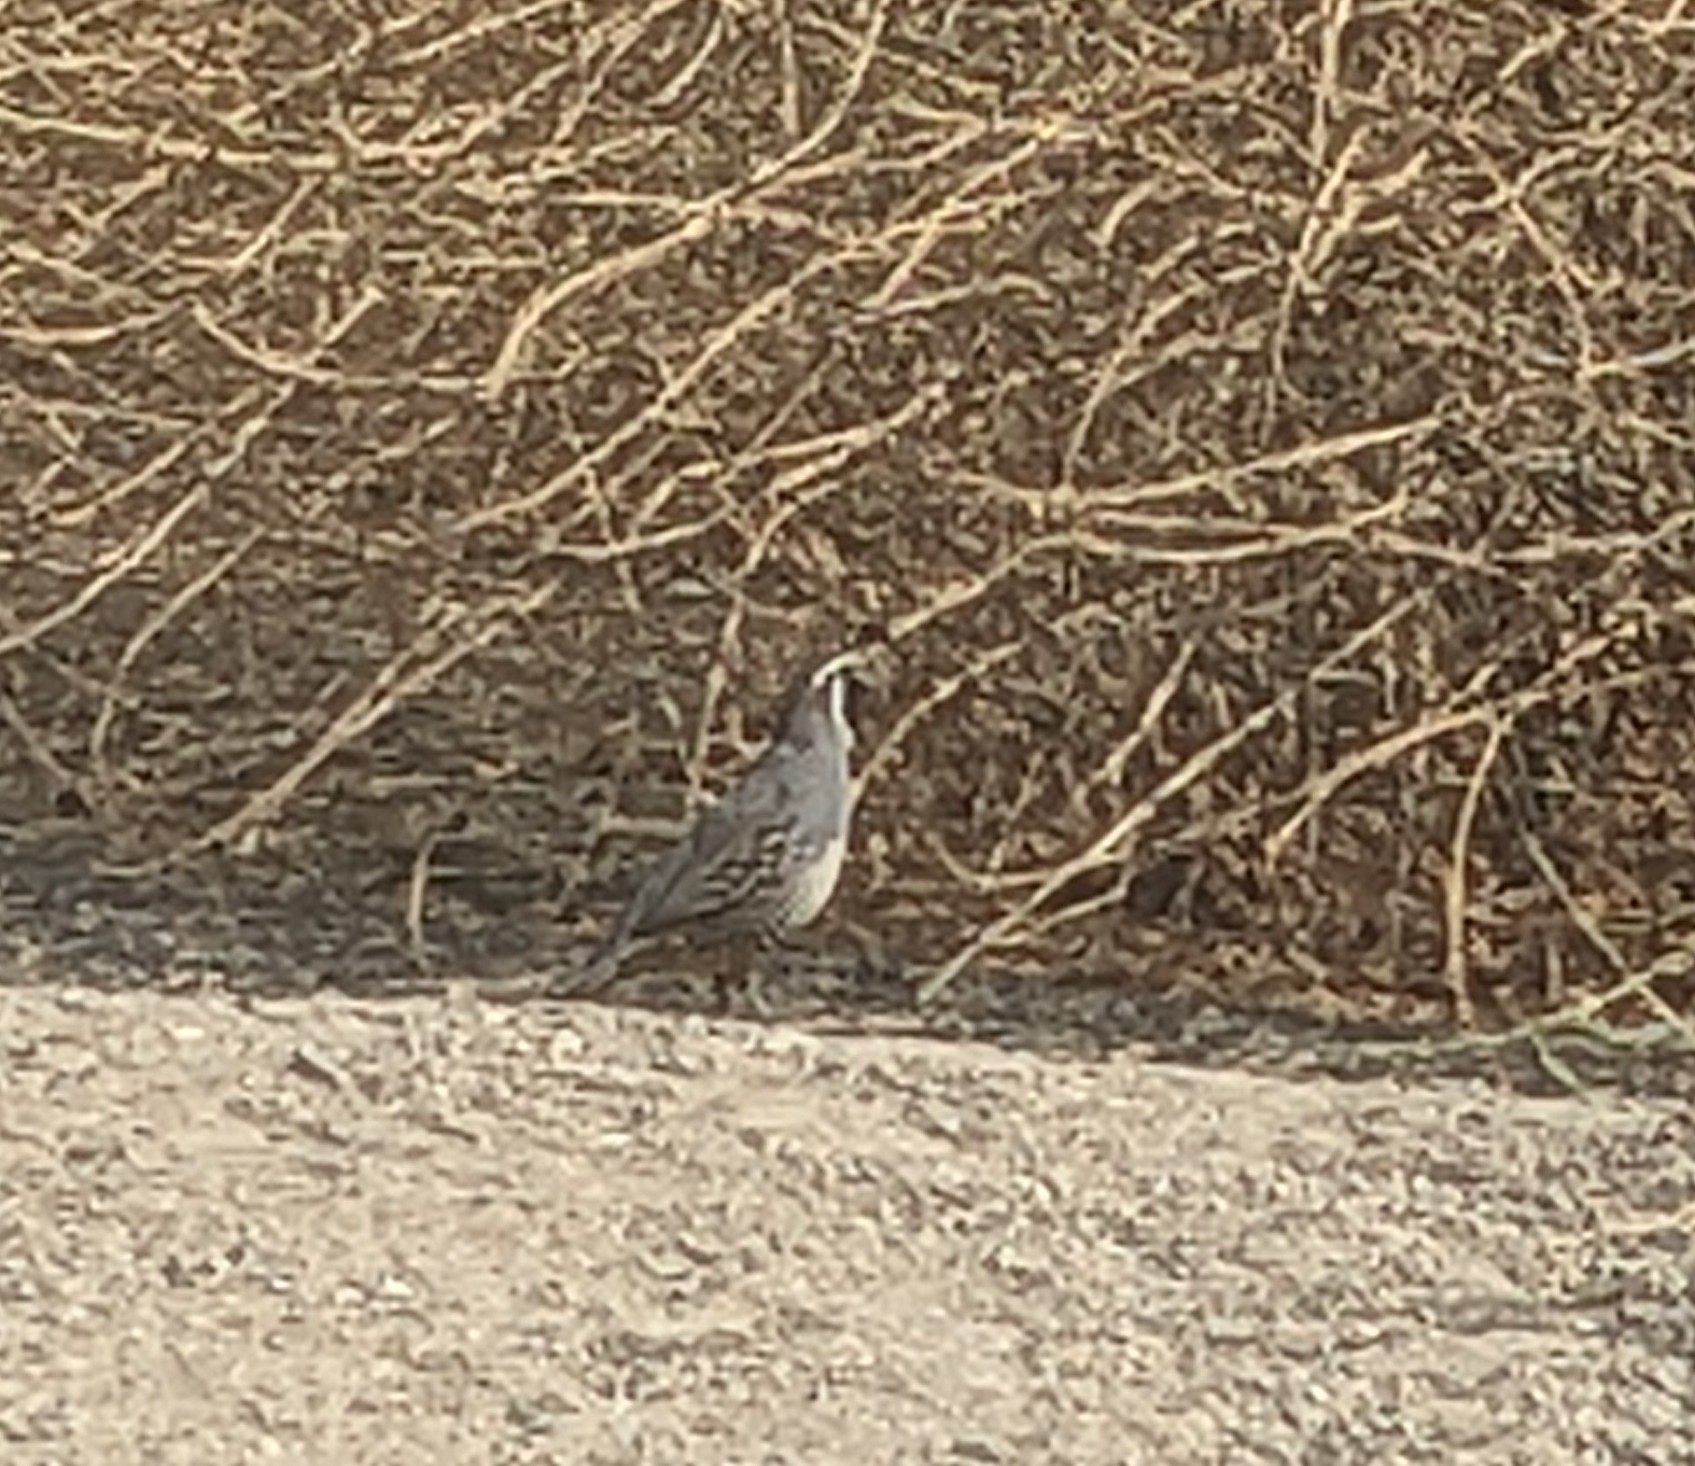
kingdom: Animalia
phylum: Chordata
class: Aves
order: Galliformes
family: Odontophoridae
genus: Callipepla
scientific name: Callipepla californica
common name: California quail
